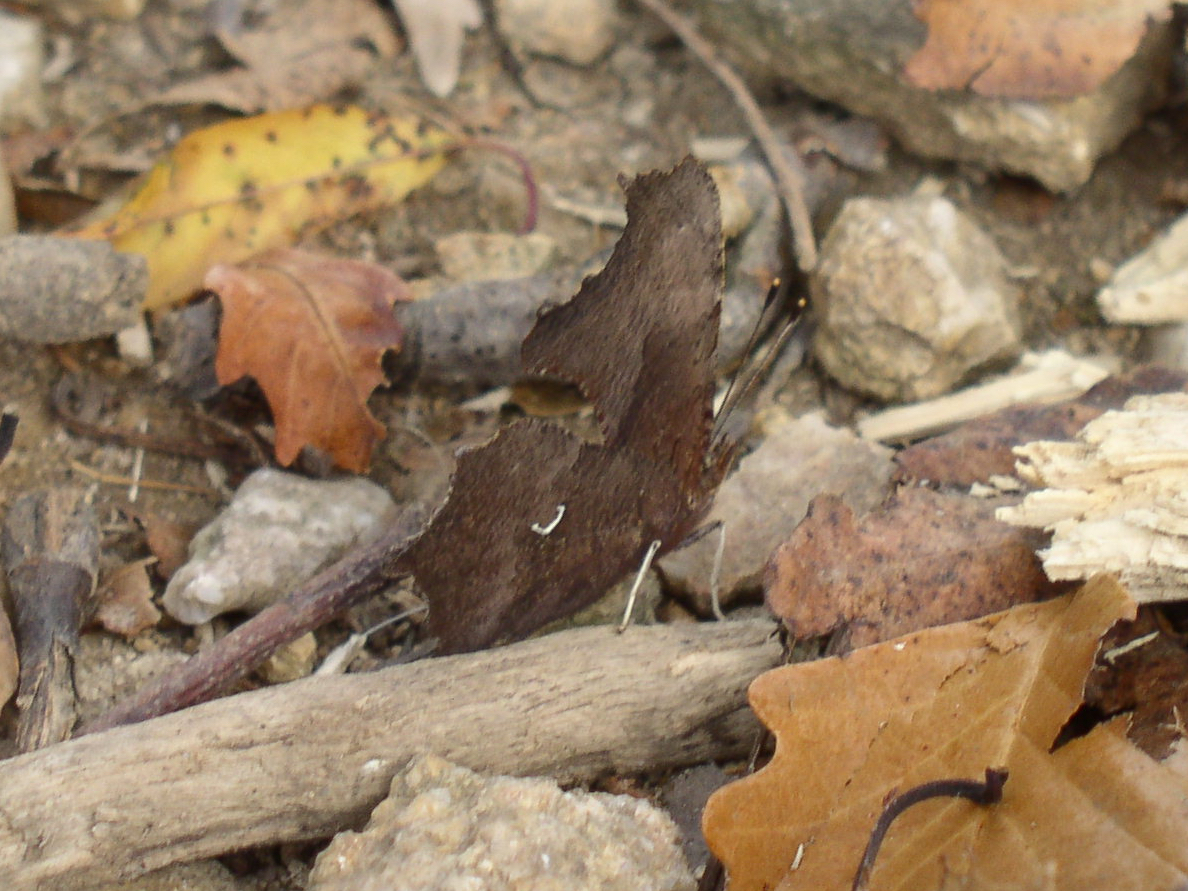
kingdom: Animalia
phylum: Arthropoda
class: Insecta
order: Lepidoptera
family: Nymphalidae
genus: Polygonia
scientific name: Polygonia comma
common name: Eastern comma
